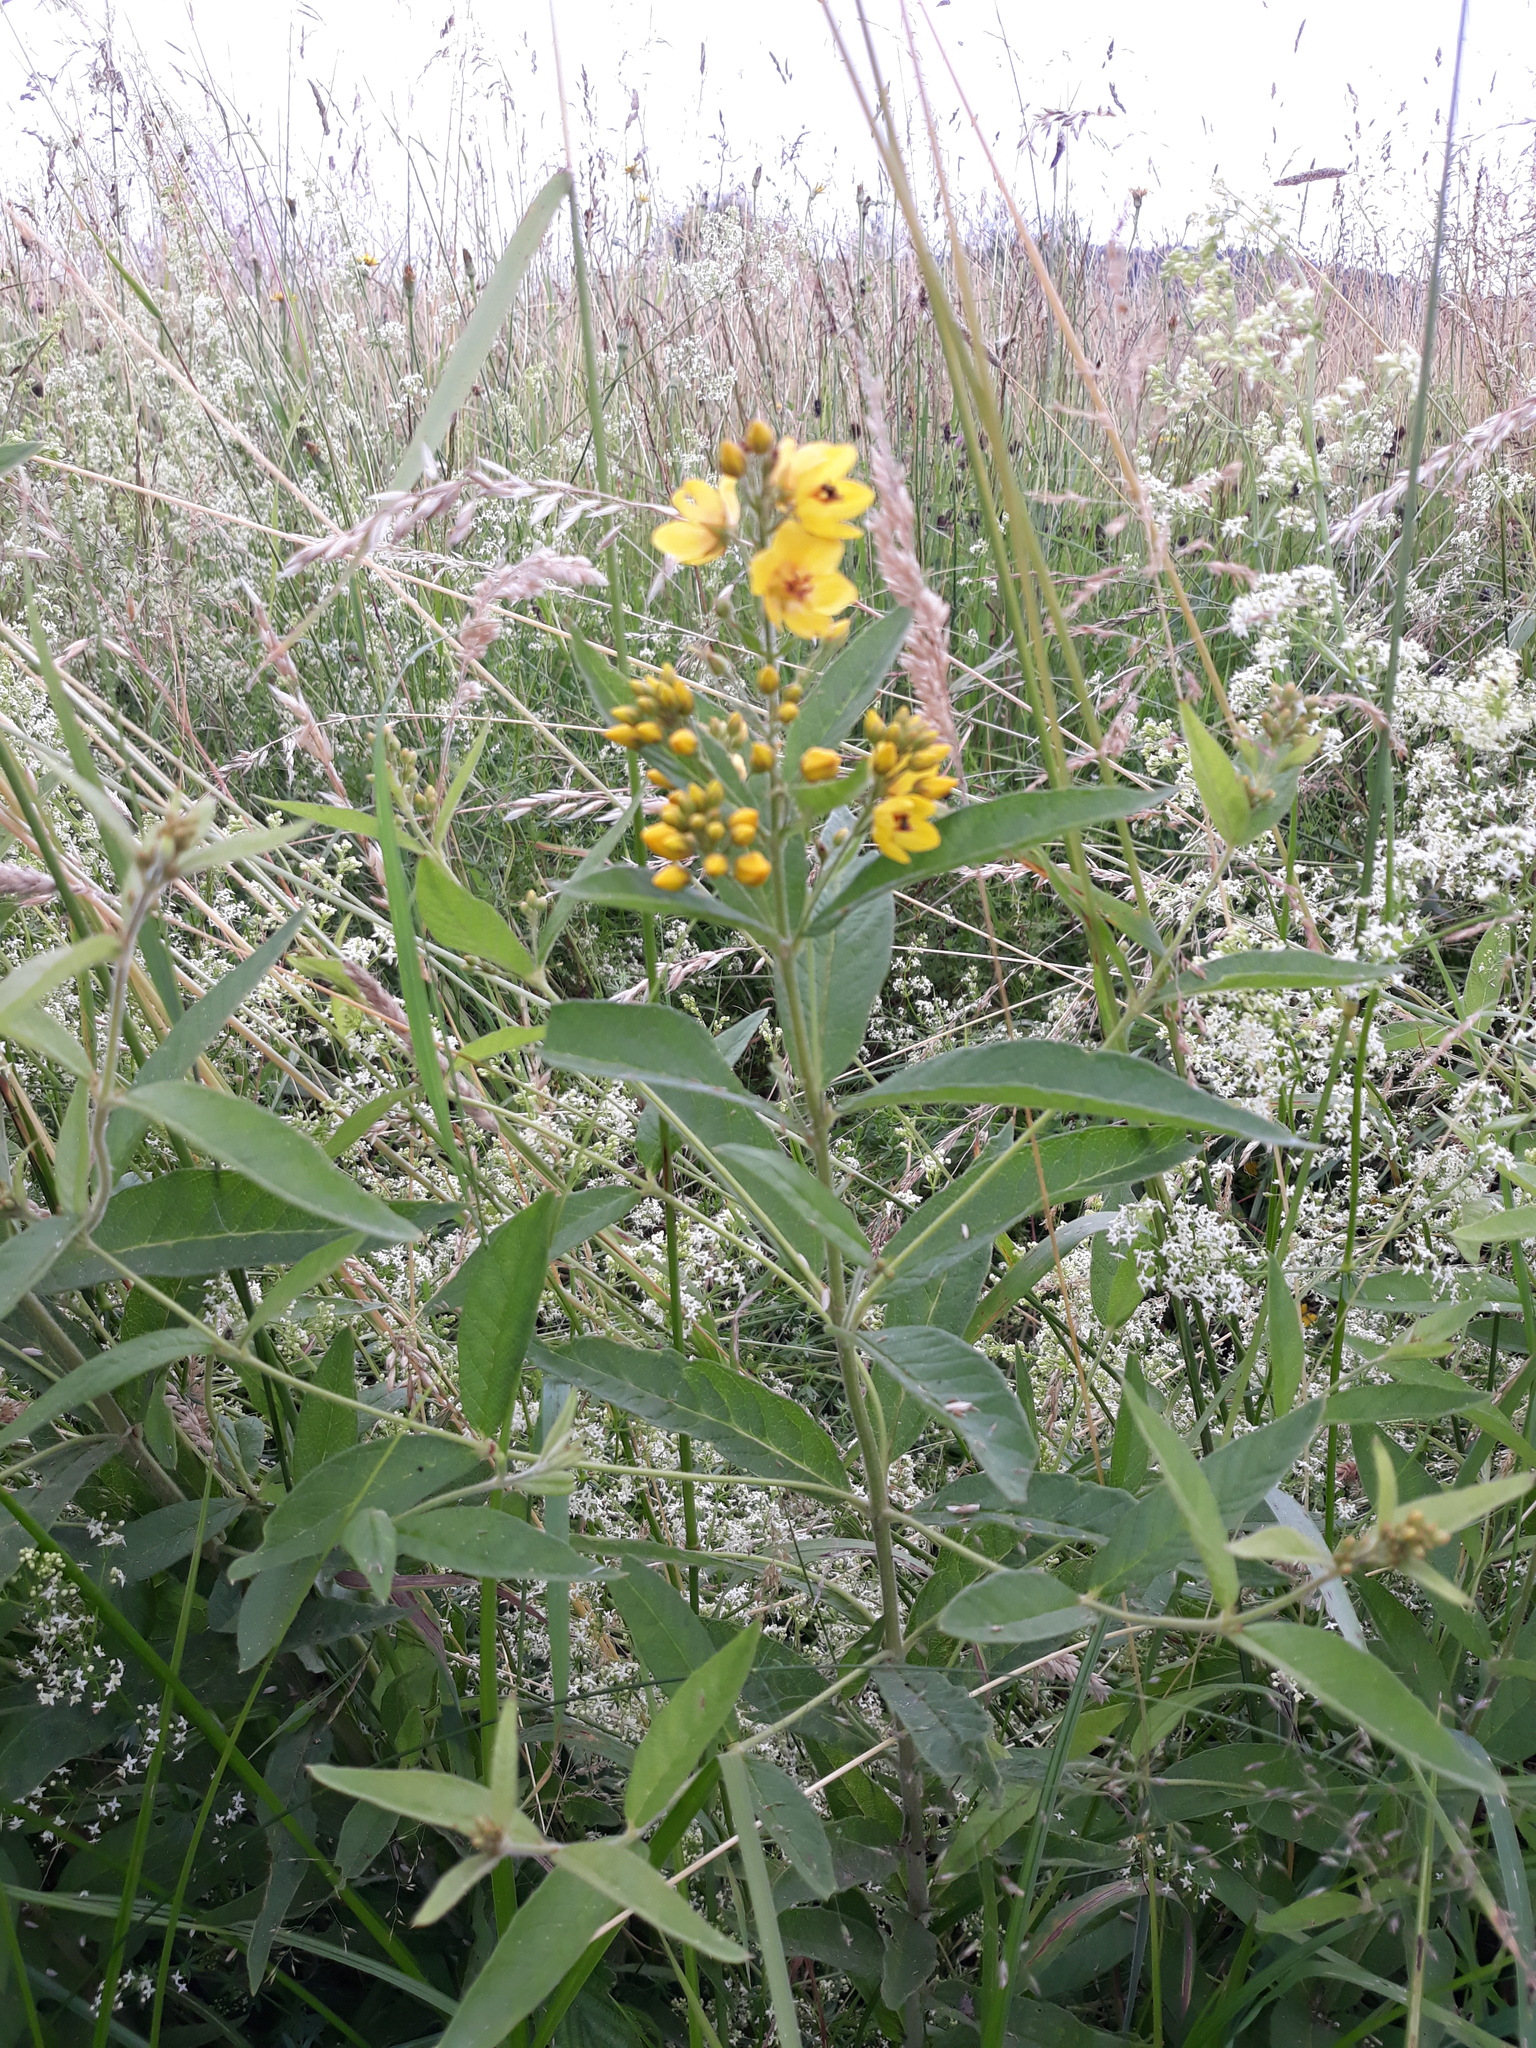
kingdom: Plantae
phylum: Tracheophyta
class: Magnoliopsida
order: Ericales
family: Primulaceae
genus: Lysimachia
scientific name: Lysimachia vulgaris
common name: Yellow loosestrife
